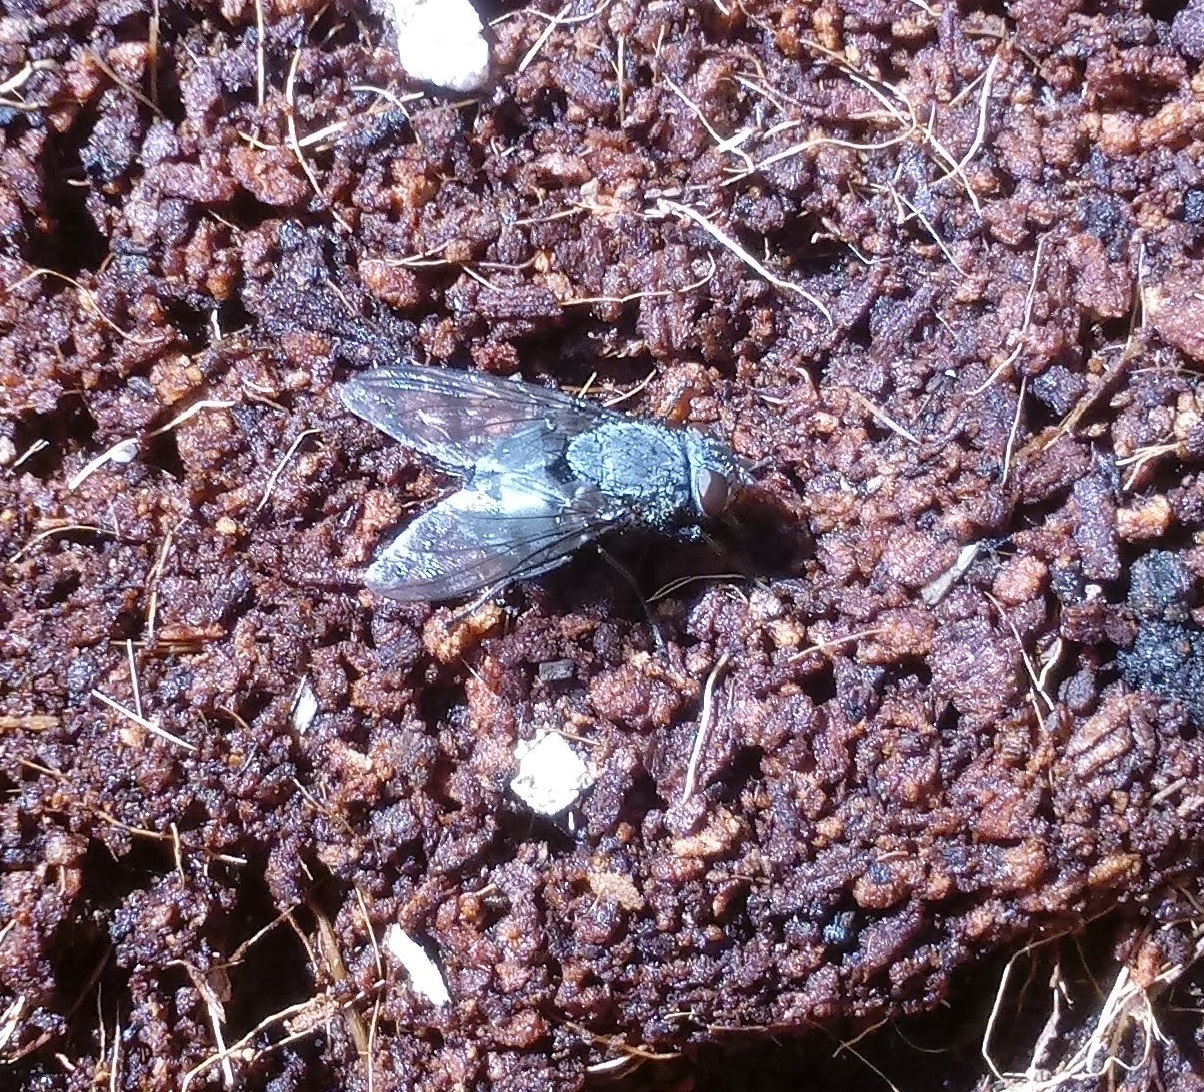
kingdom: Animalia
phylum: Arthropoda
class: Insecta
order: Diptera
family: Calliphoridae
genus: Calliphora
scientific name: Calliphora vicina
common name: Common blow flie
